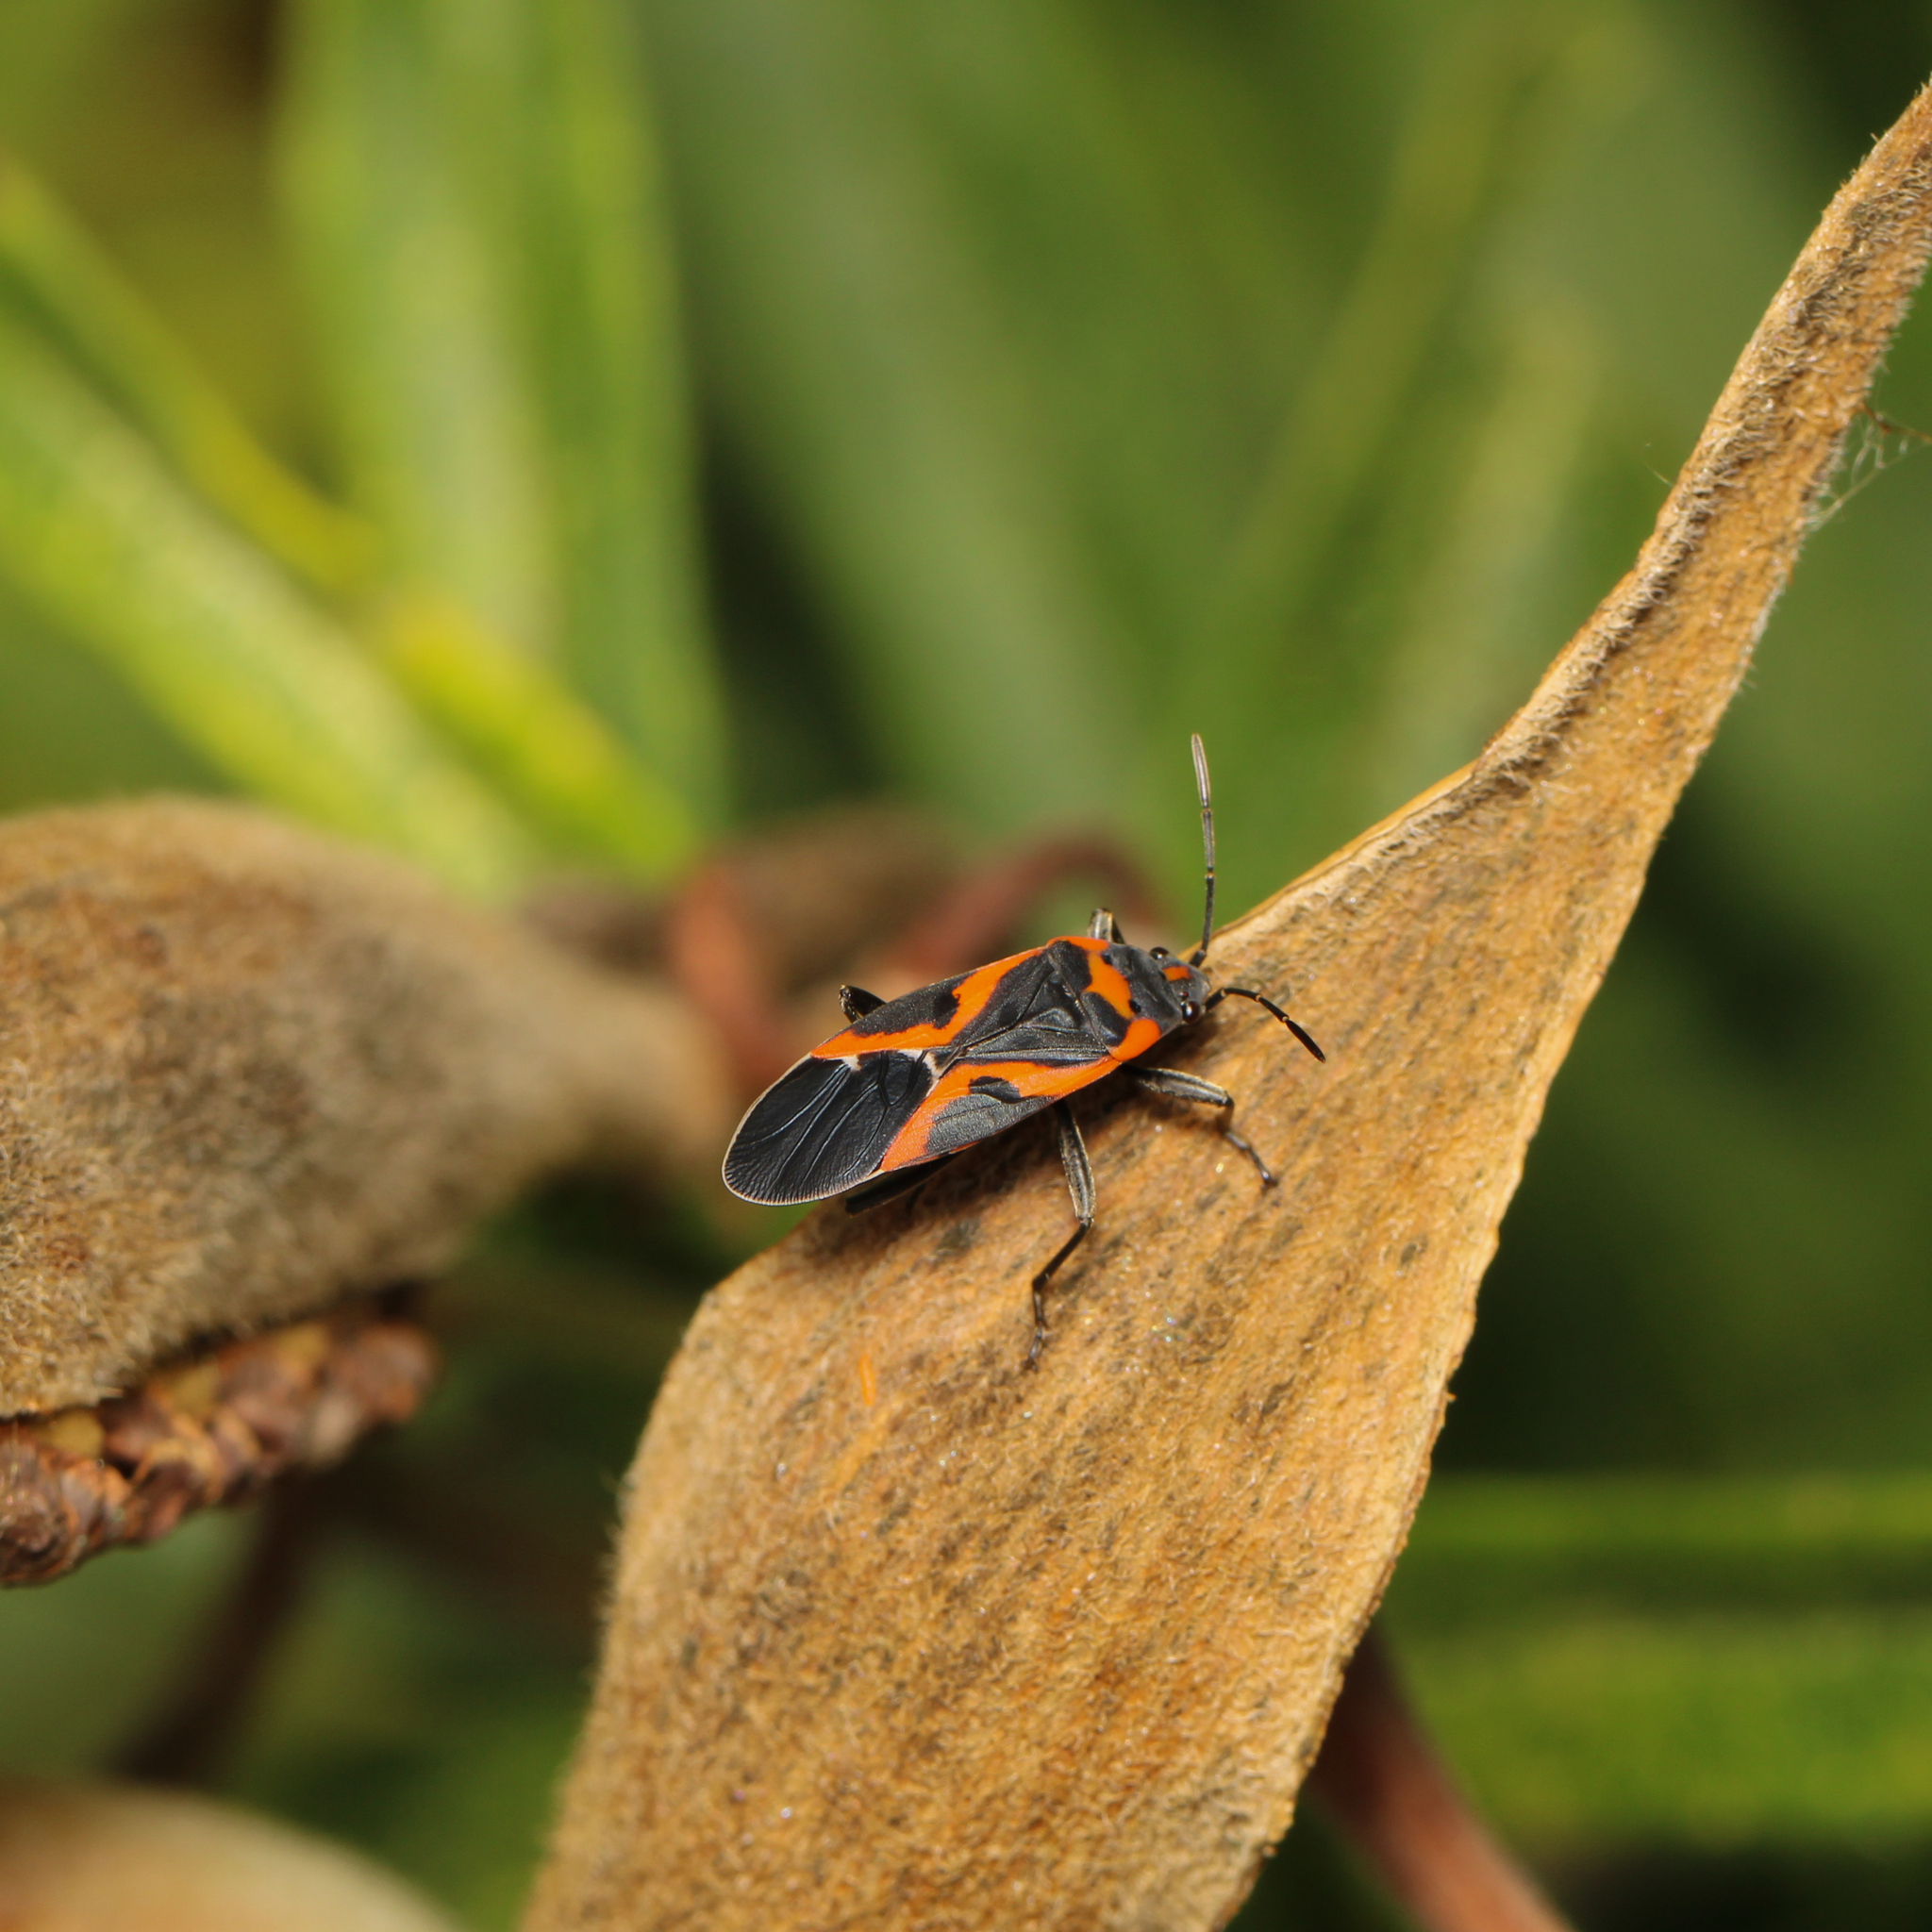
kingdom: Animalia
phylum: Arthropoda
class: Insecta
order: Hemiptera
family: Lygaeidae
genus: Lygaeus
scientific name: Lygaeus kalmii
